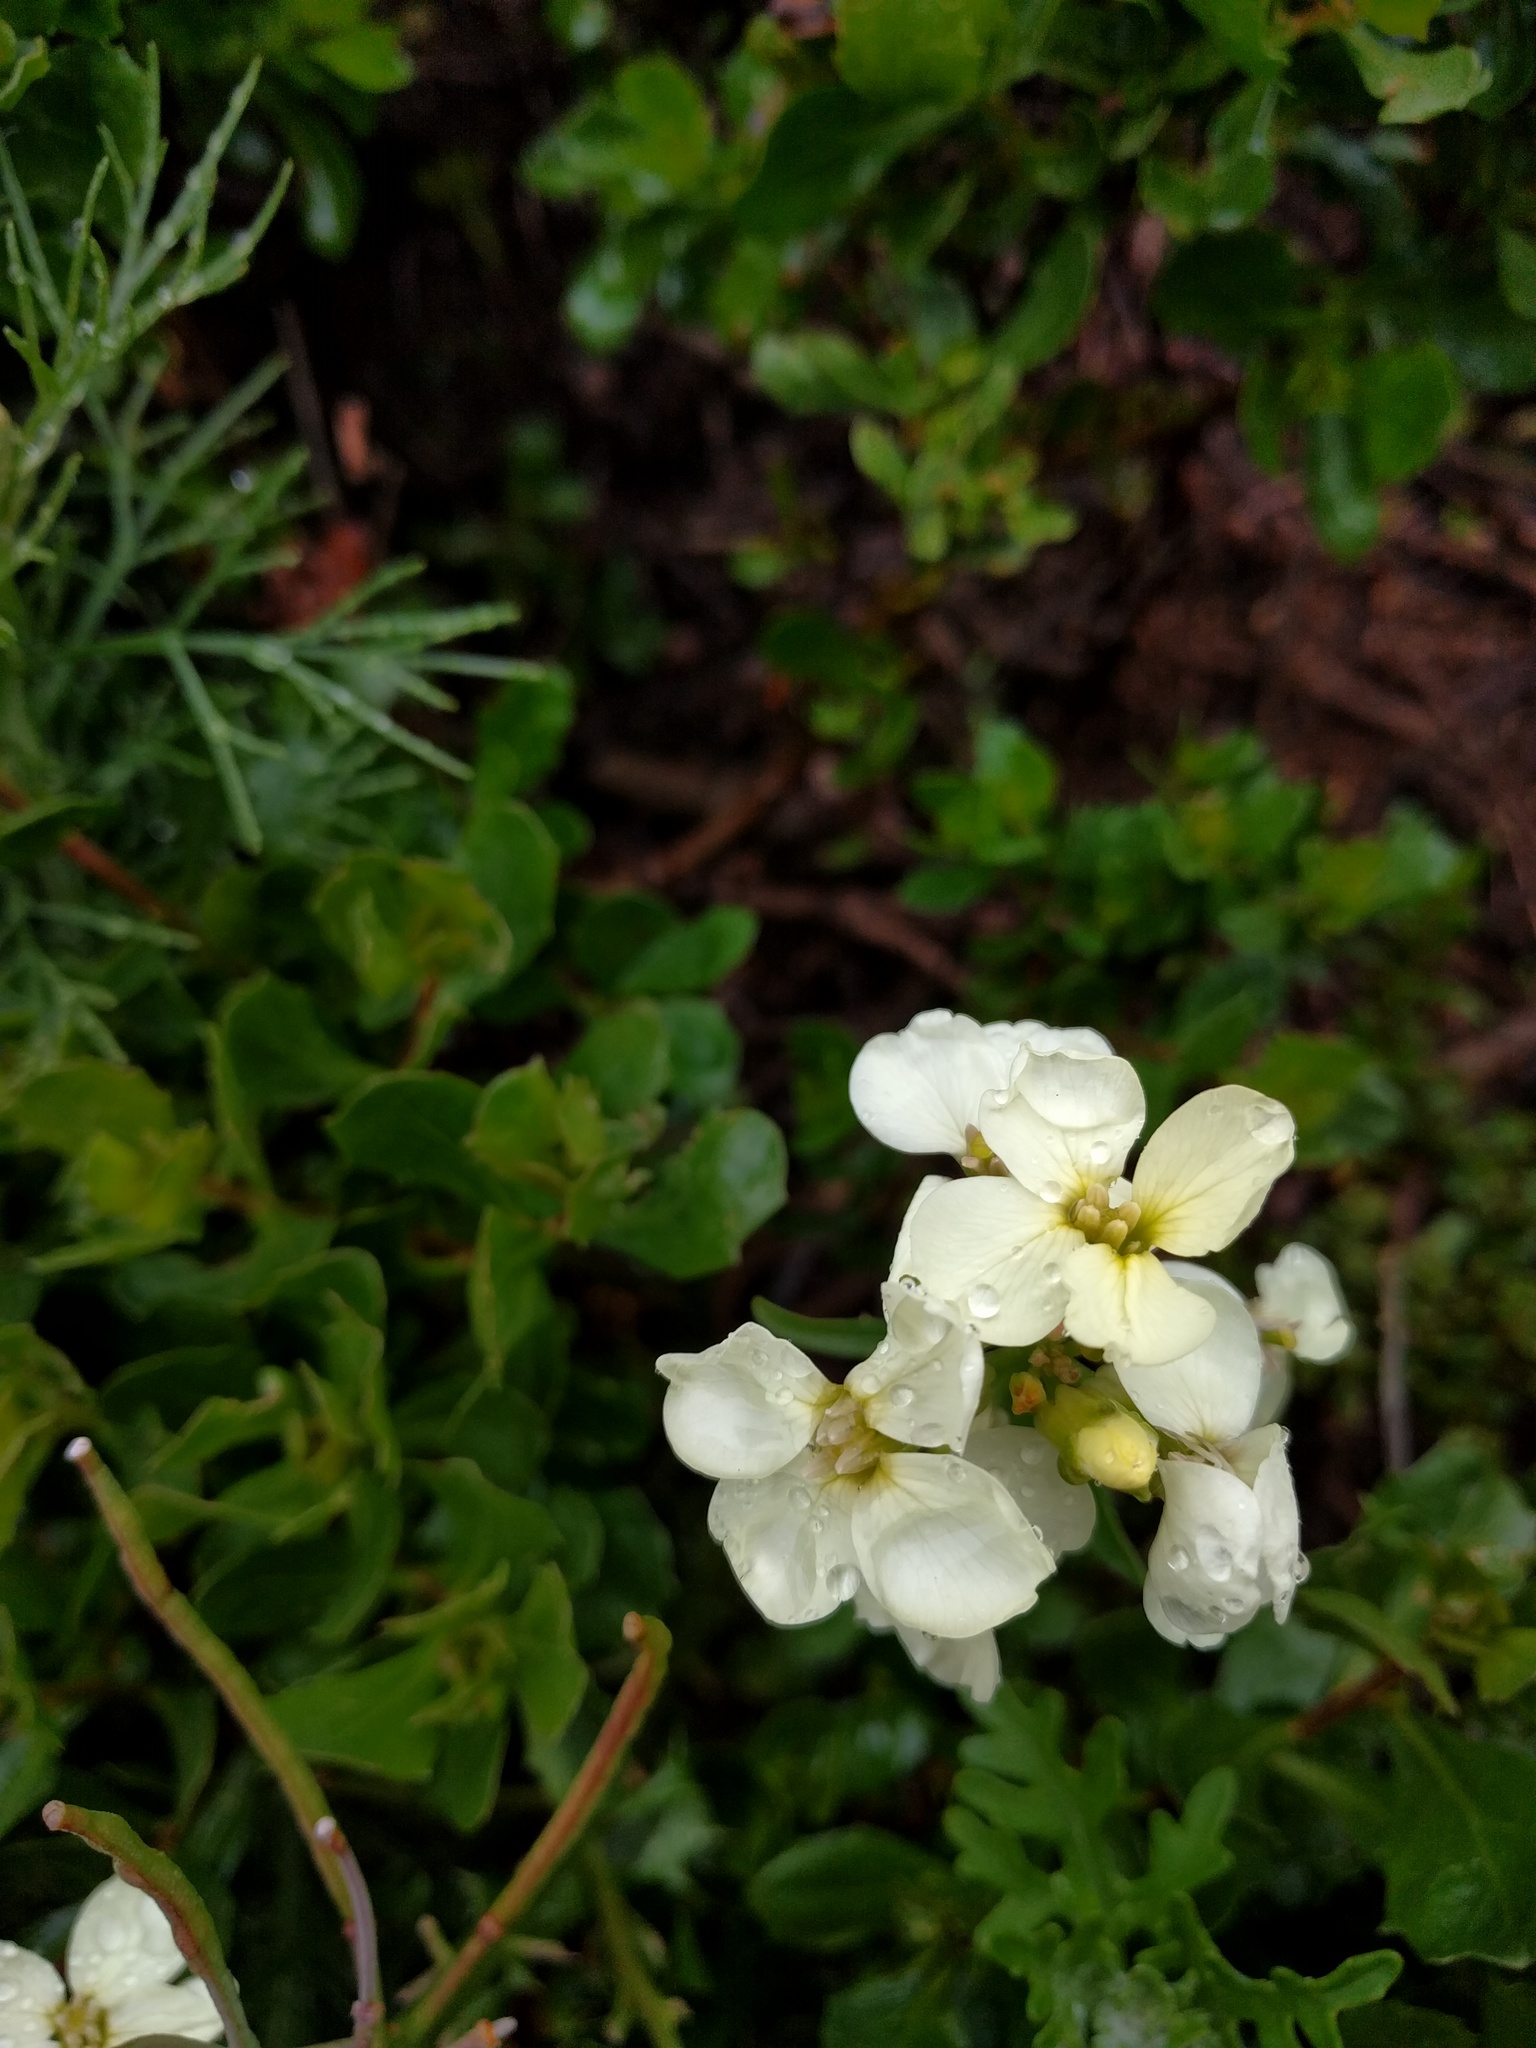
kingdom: Plantae
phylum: Tracheophyta
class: Magnoliopsida
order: Brassicales
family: Brassicaceae
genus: Erysimum
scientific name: Erysimum franciscanum
